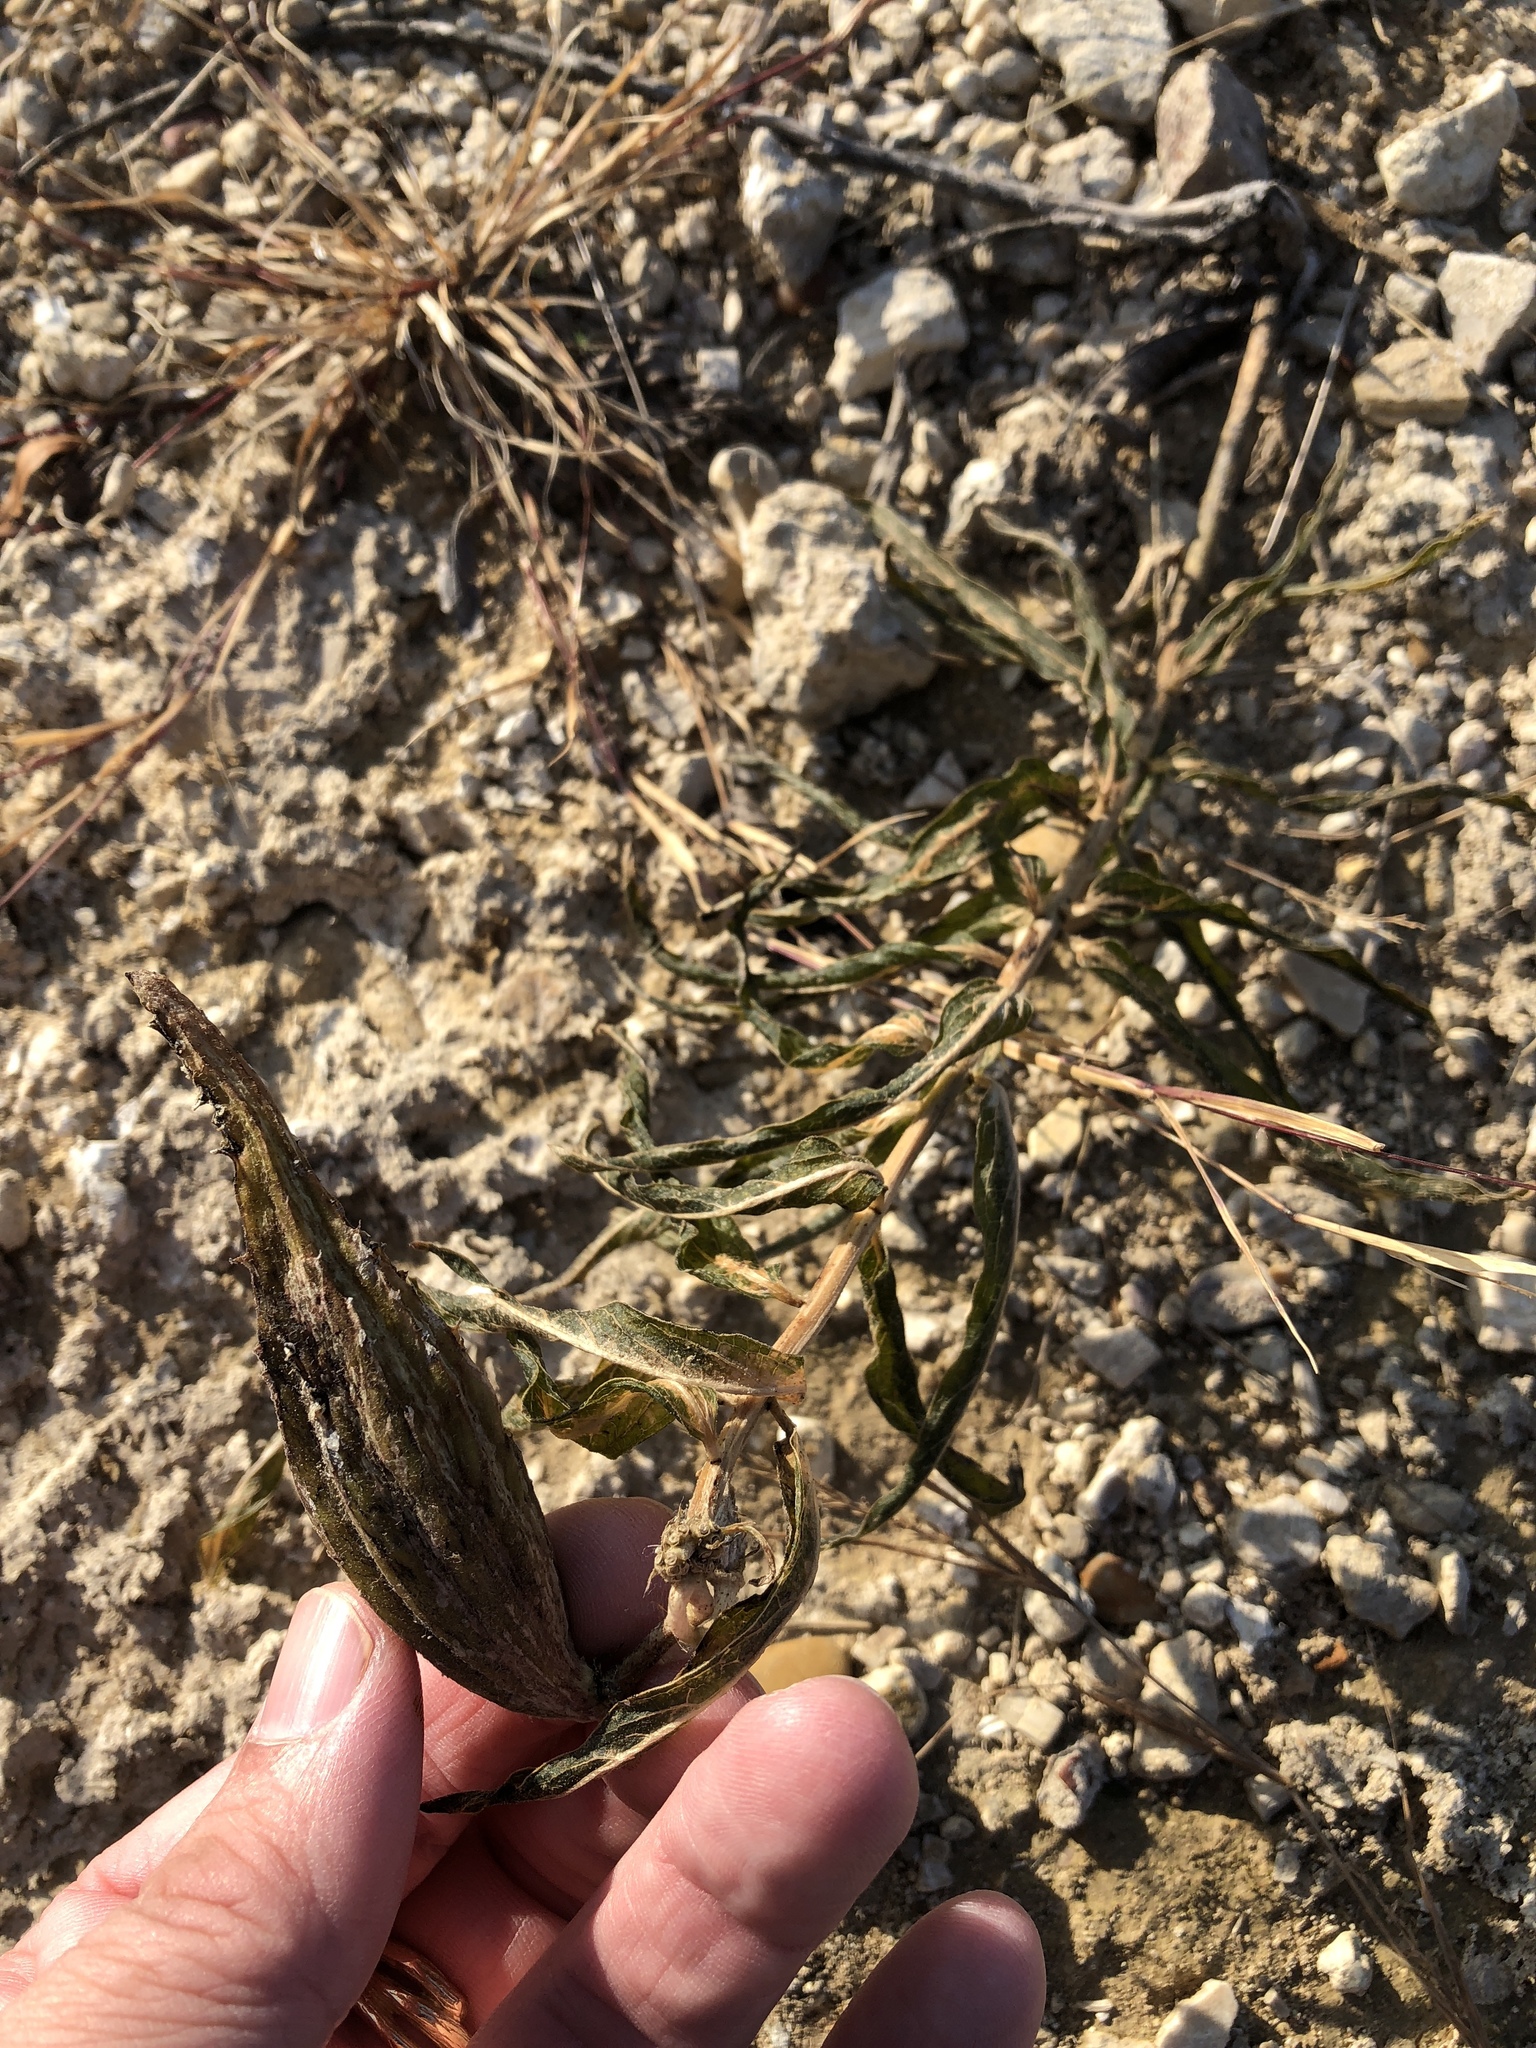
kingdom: Plantae
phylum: Tracheophyta
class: Magnoliopsida
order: Gentianales
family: Apocynaceae
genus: Asclepias
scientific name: Asclepias asperula
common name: Antelope horns
